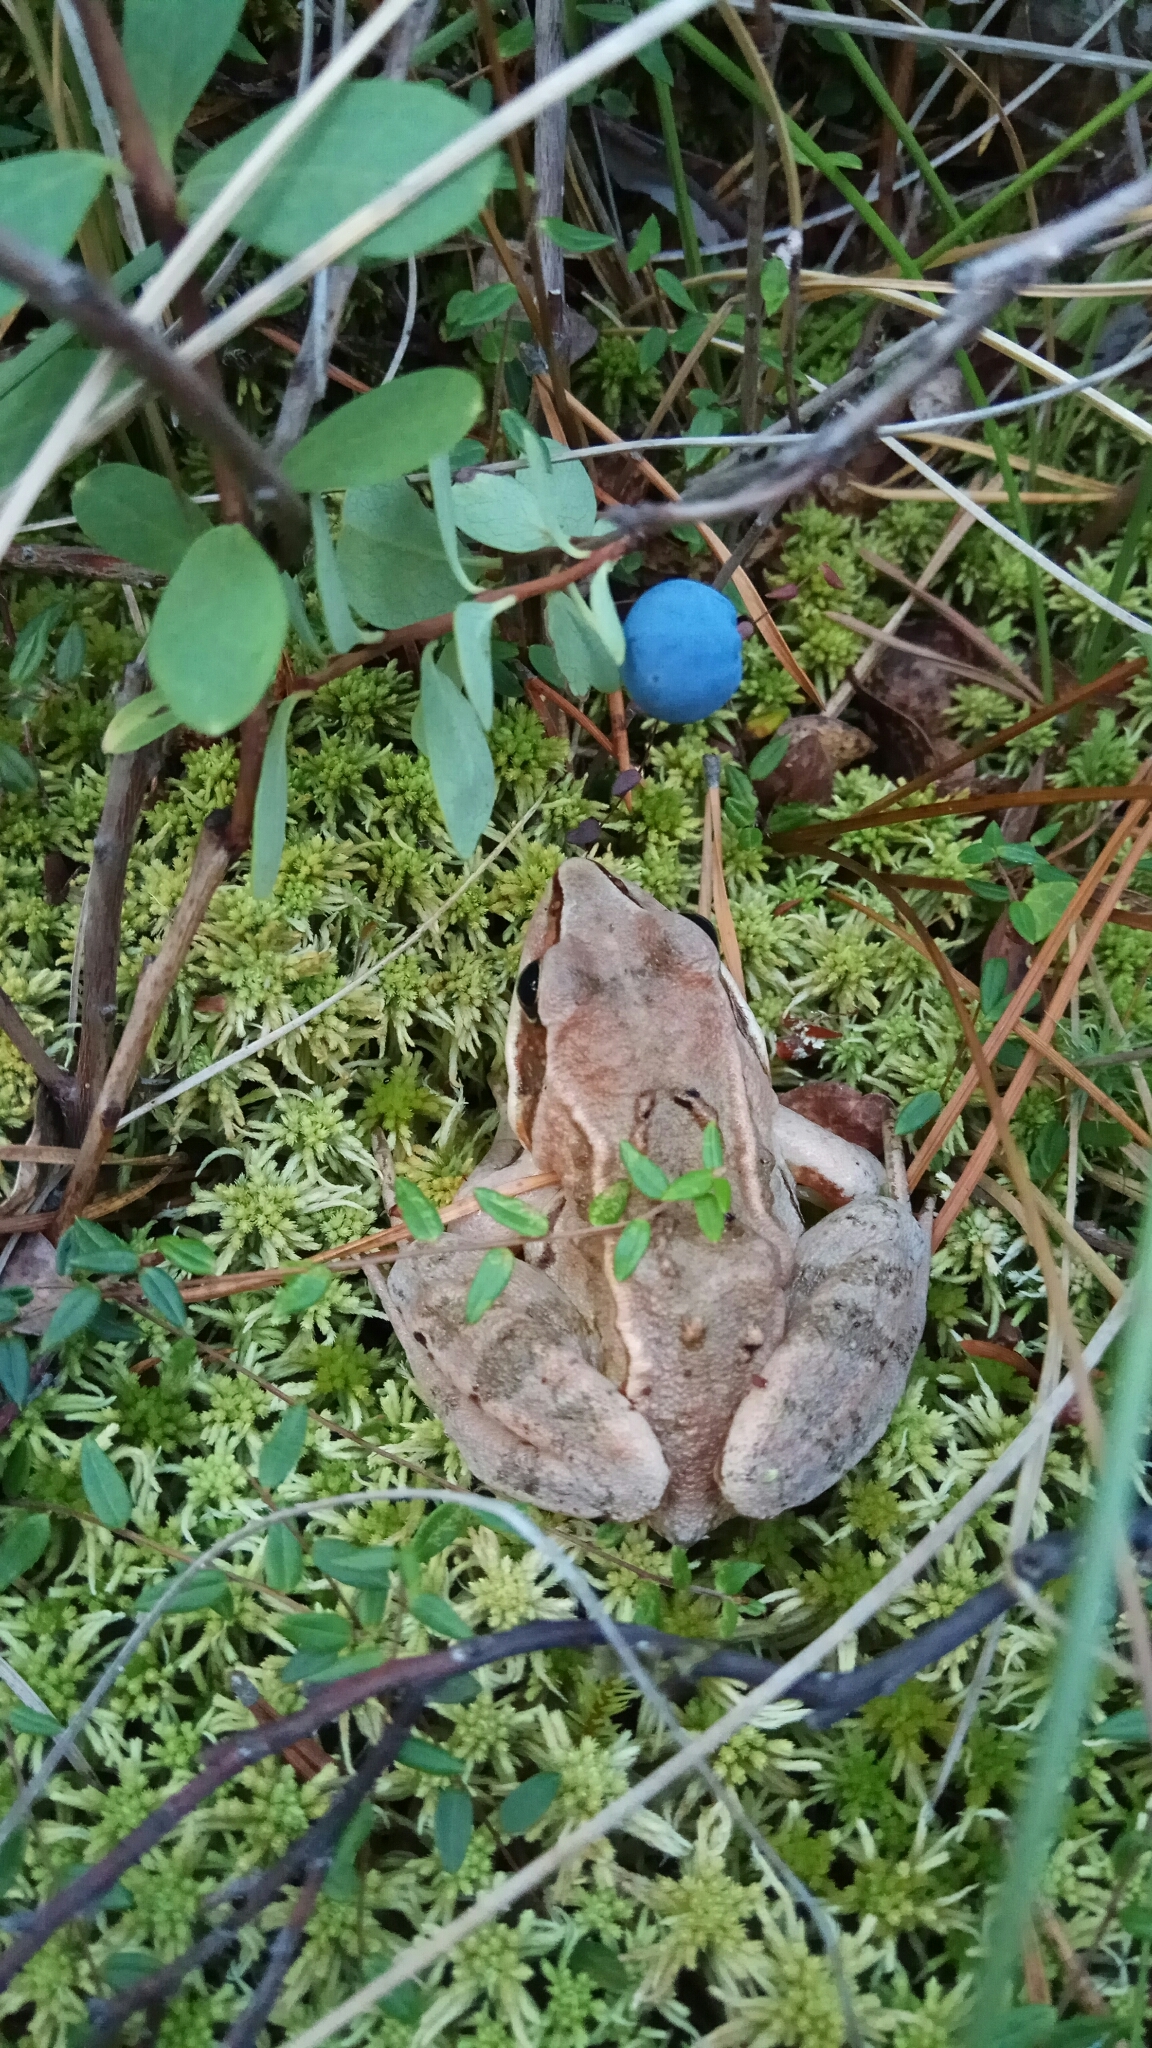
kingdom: Animalia
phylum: Chordata
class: Amphibia
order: Anura
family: Ranidae
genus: Rana
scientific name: Rana arvalis
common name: Moor frog
